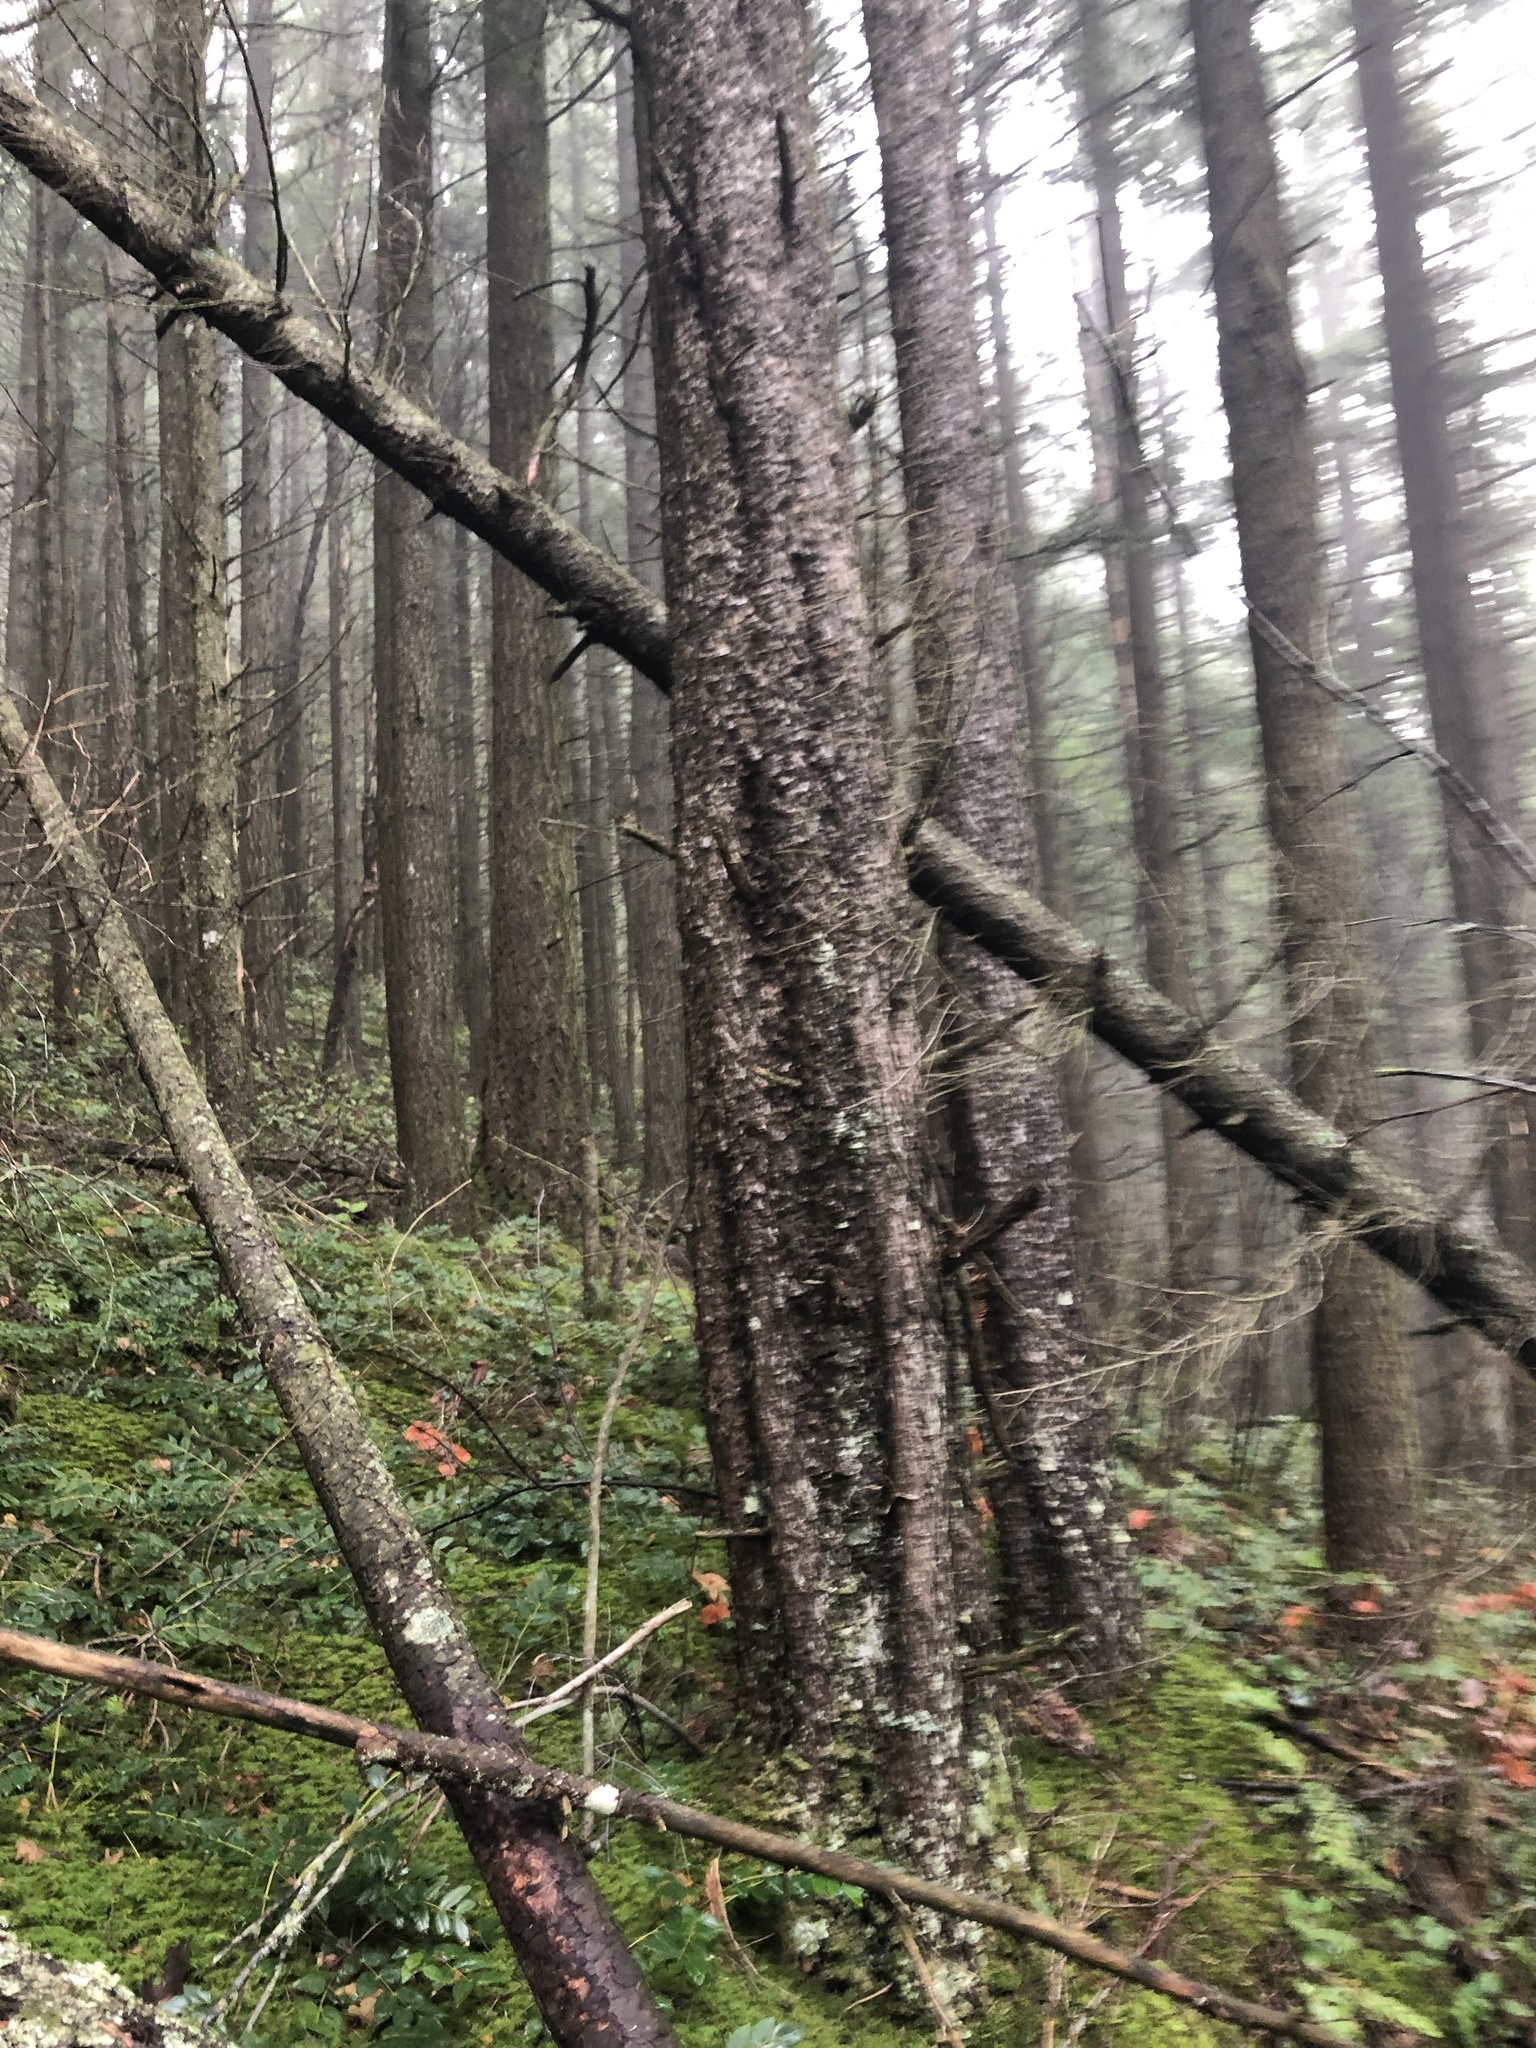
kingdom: Plantae
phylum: Tracheophyta
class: Pinopsida
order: Pinales
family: Pinaceae
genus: Pinus
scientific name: Pinus contorta
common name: Lodgepole pine
